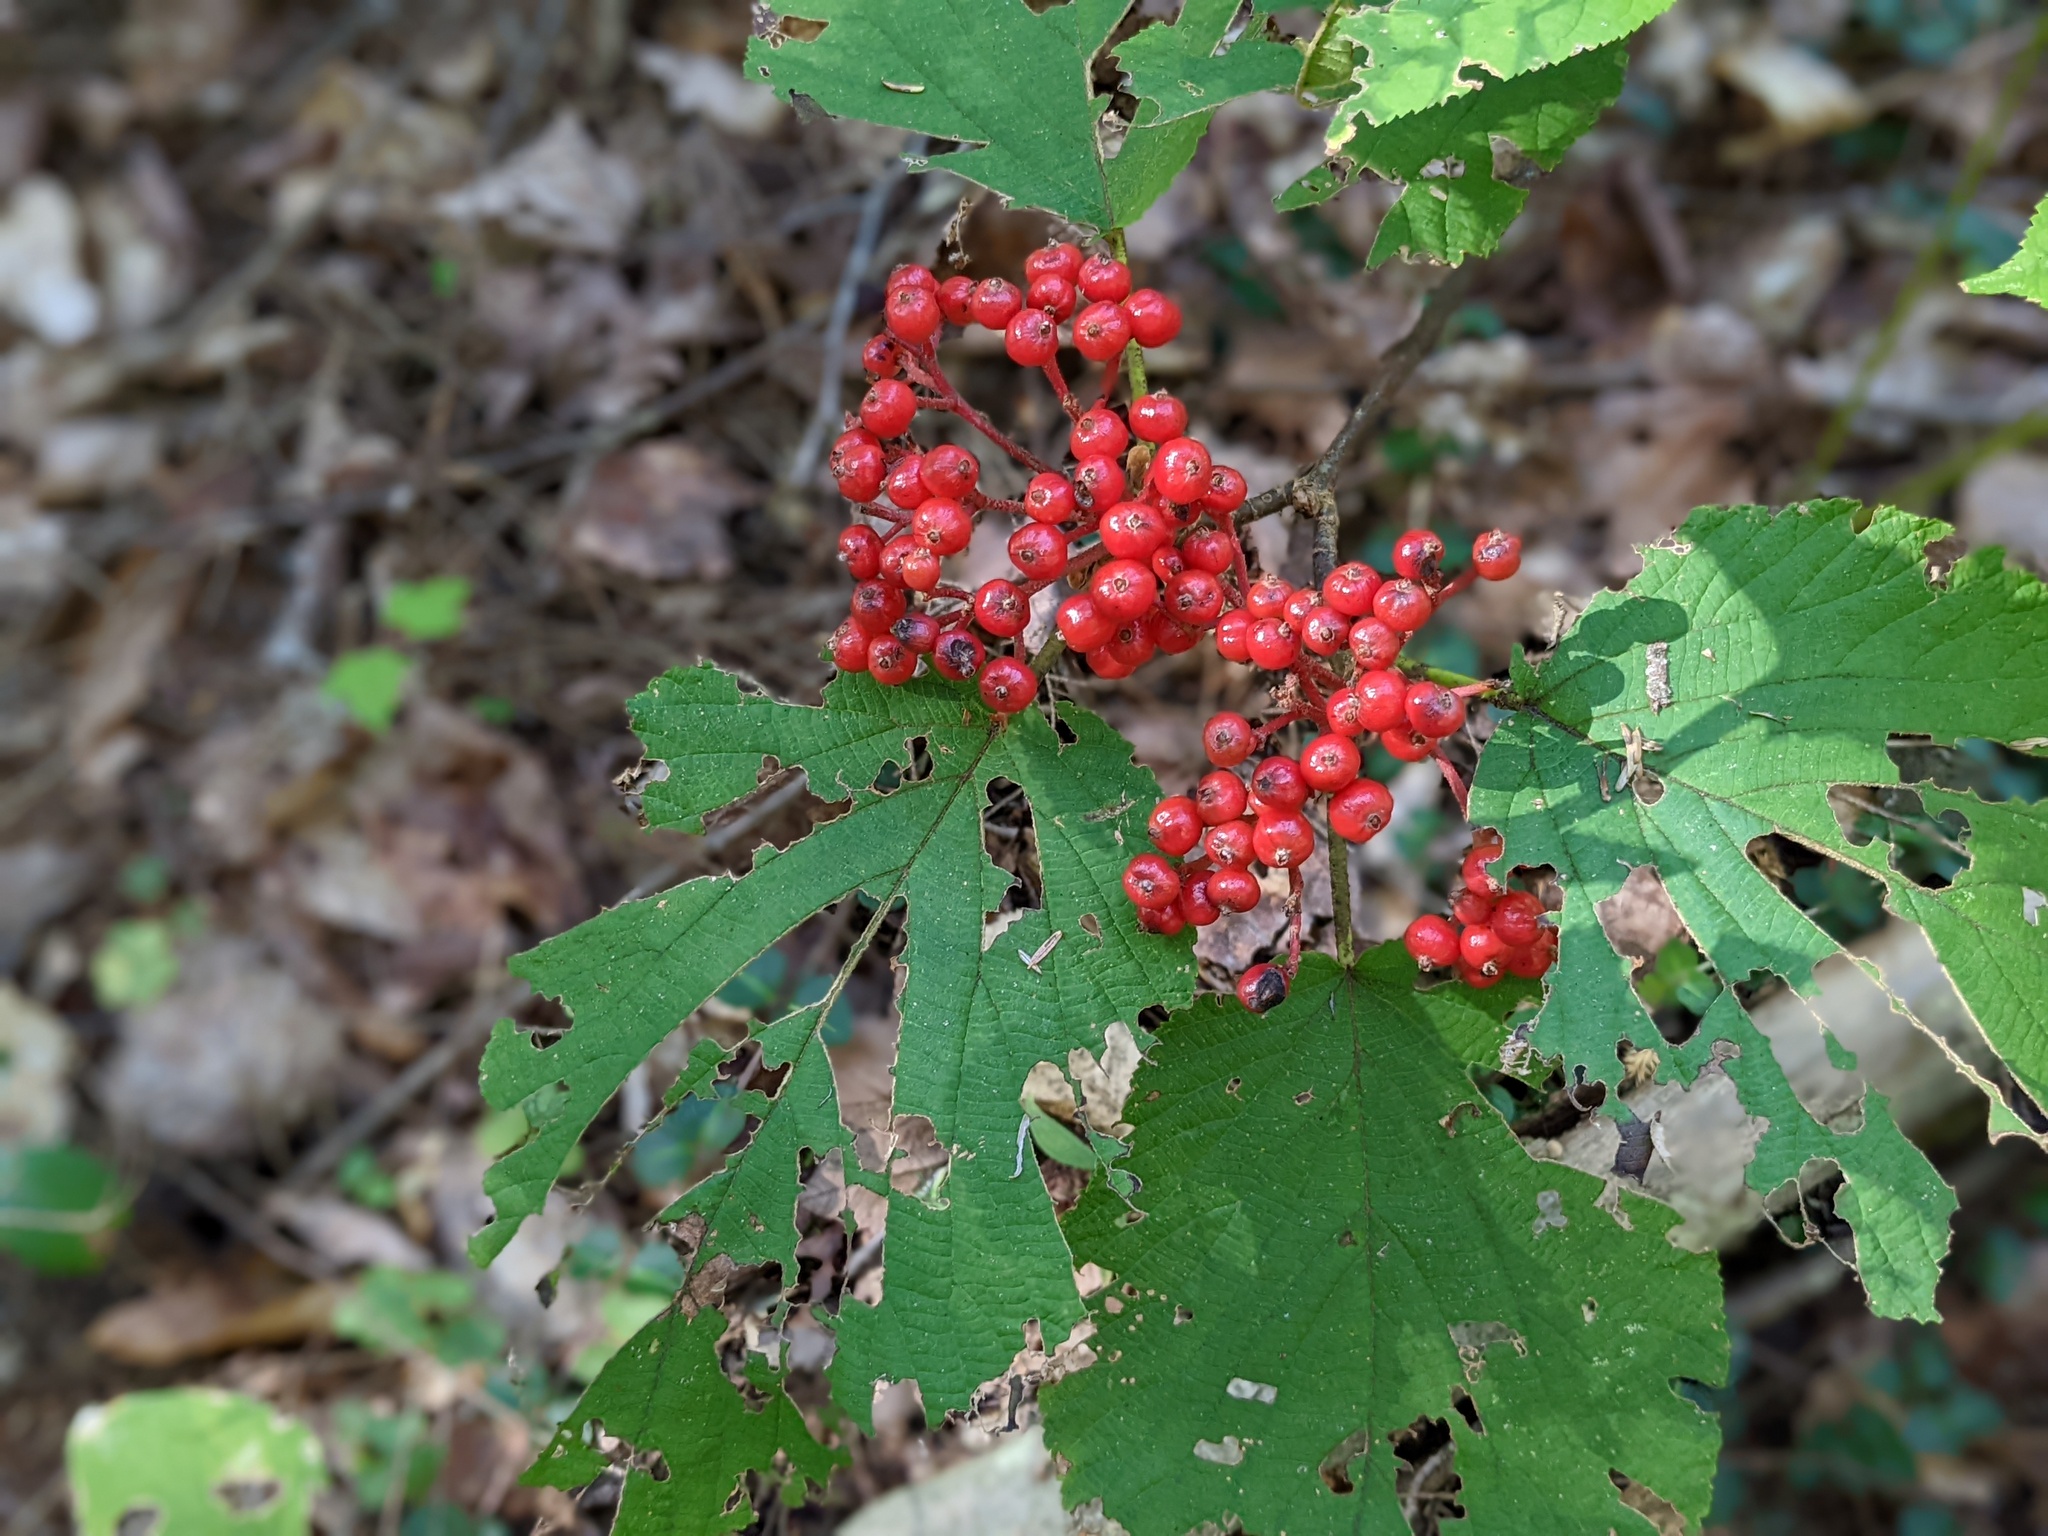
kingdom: Plantae
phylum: Tracheophyta
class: Magnoliopsida
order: Dipsacales
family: Viburnaceae
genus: Viburnum
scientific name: Viburnum lantanoides
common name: Hobblebush
